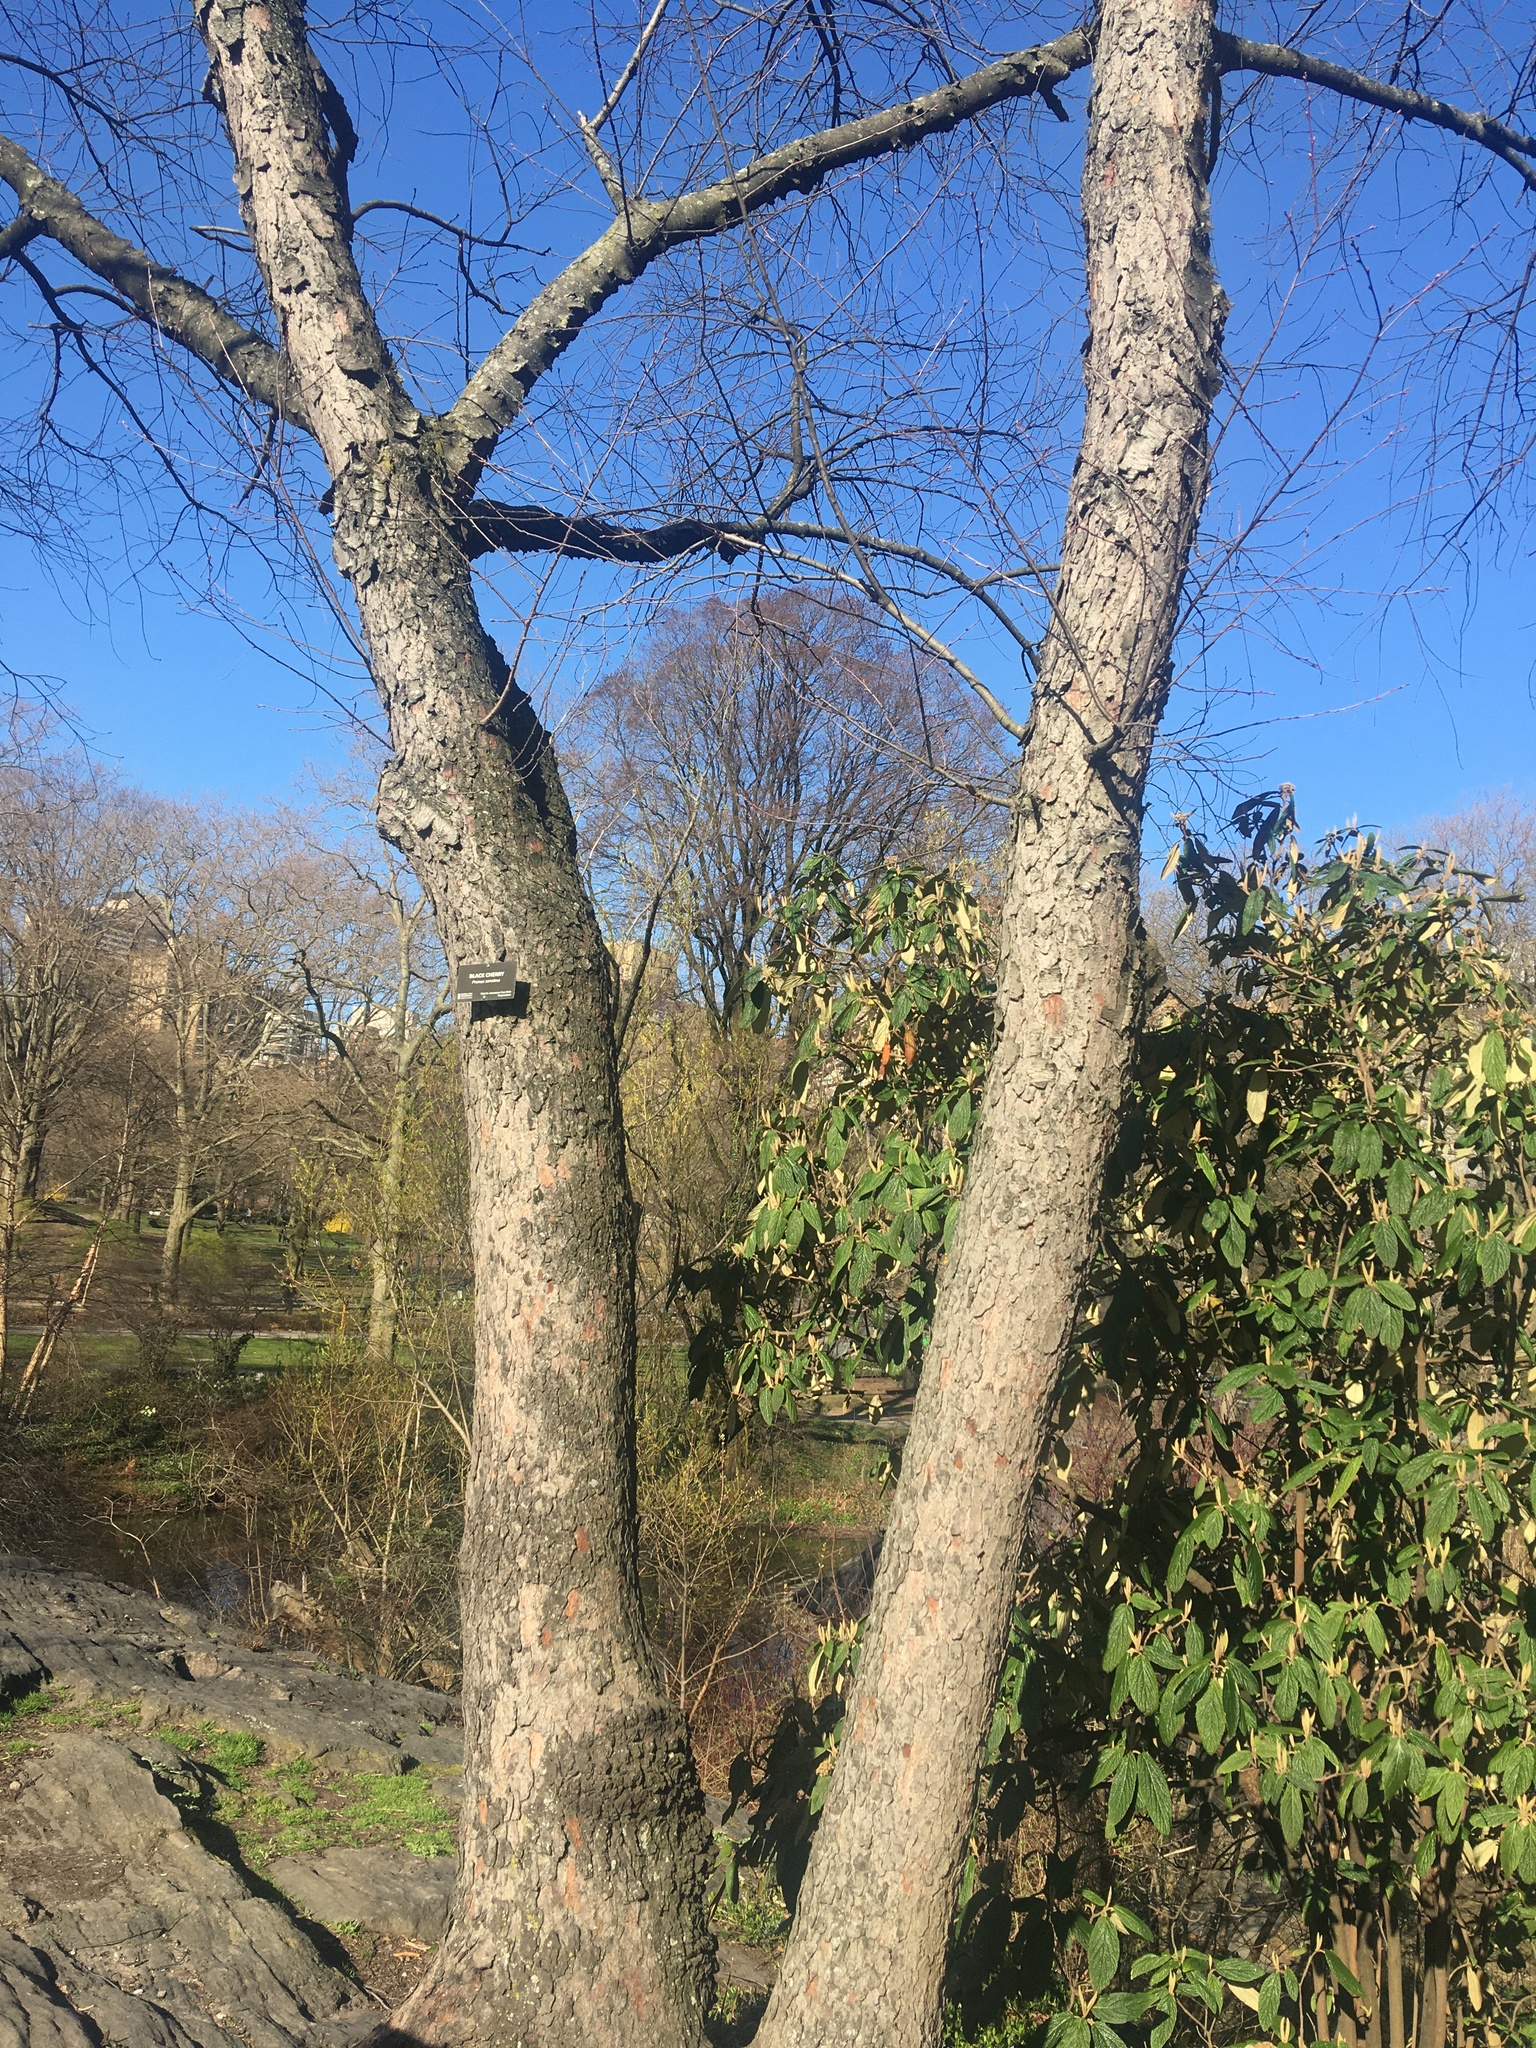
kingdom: Plantae
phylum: Tracheophyta
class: Magnoliopsida
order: Rosales
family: Rosaceae
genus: Prunus
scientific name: Prunus serotina
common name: Black cherry
